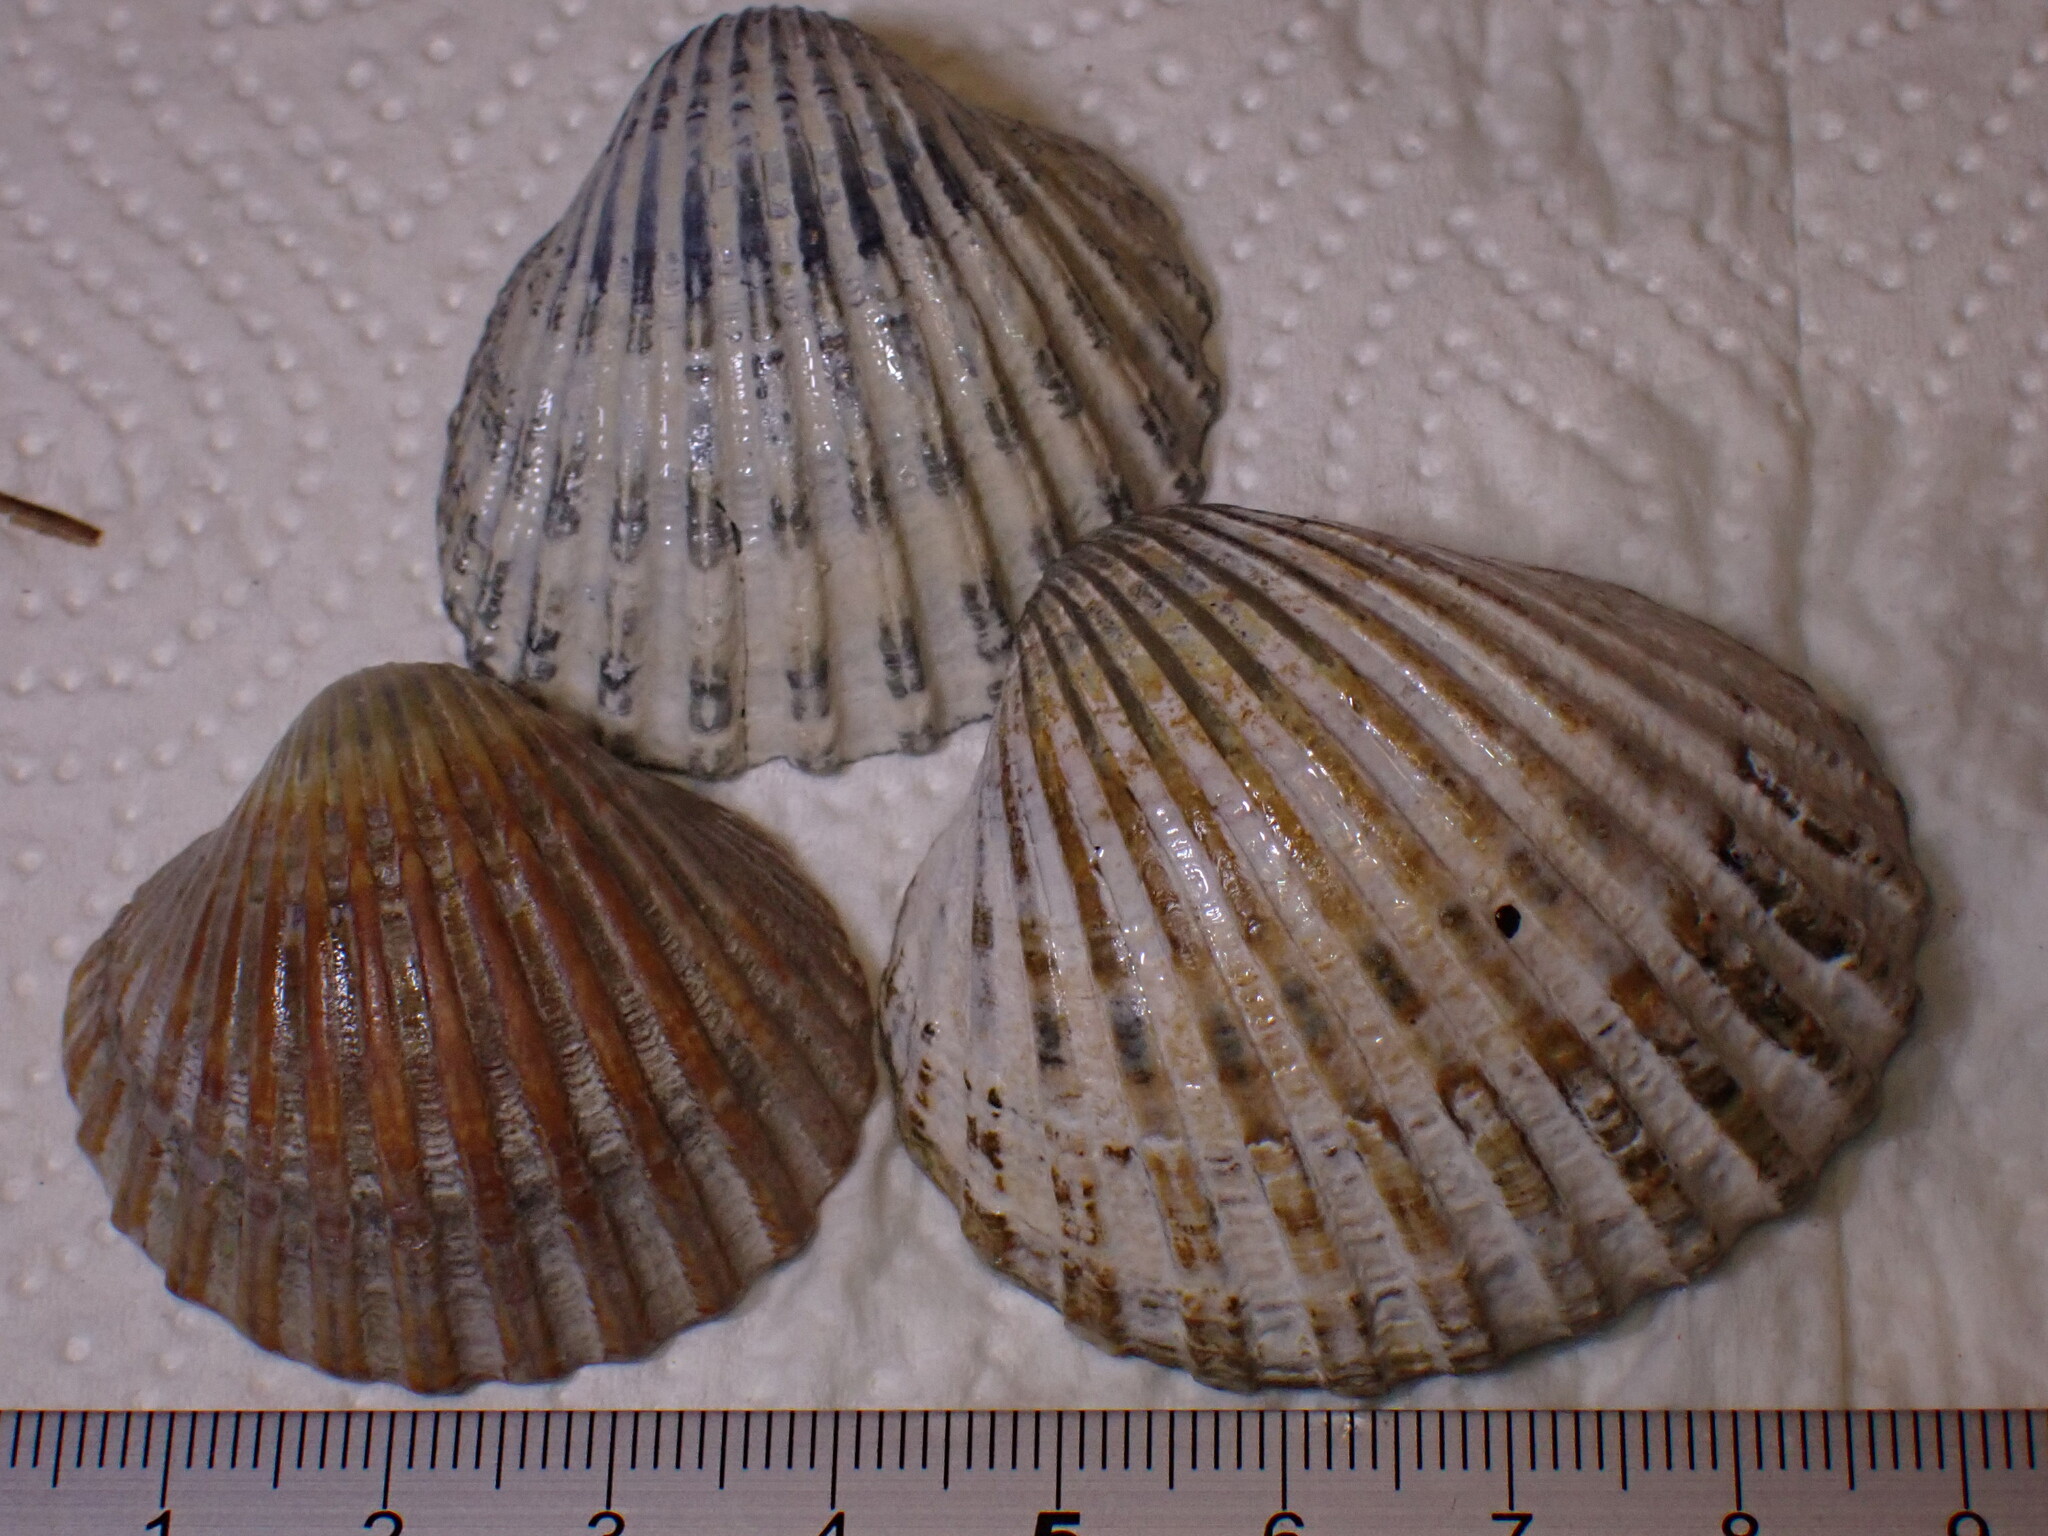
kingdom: Animalia
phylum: Mollusca
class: Bivalvia
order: Cardiida
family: Cardiidae
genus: Acanthocardia
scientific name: Acanthocardia echinata
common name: Prickly cockle
